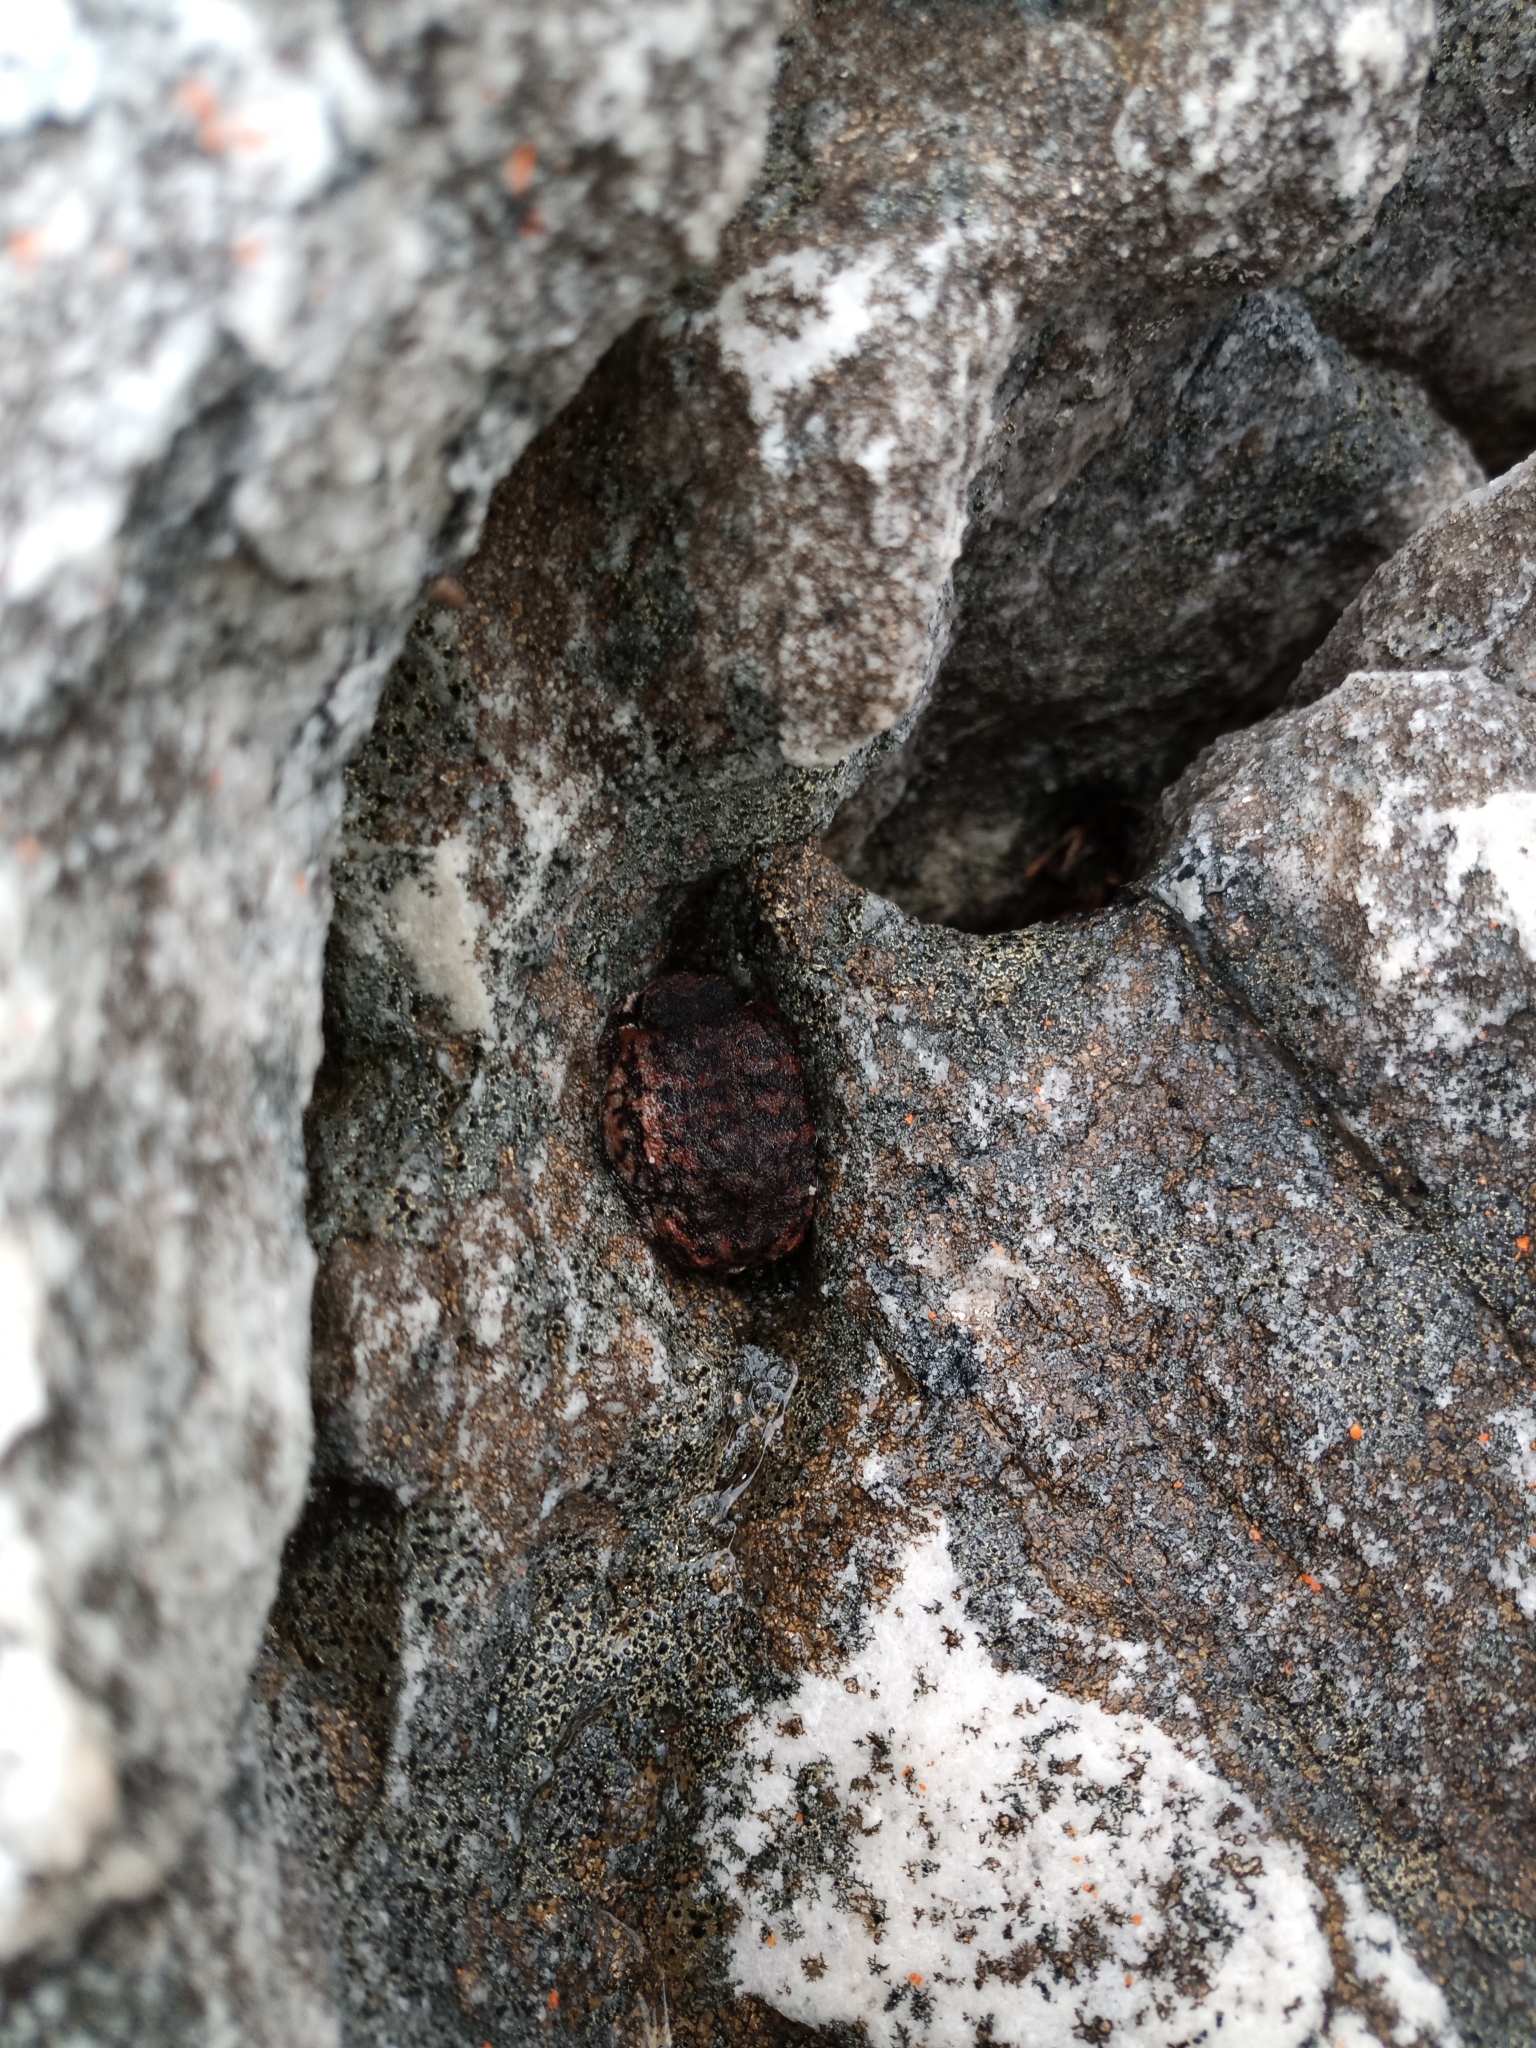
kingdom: Animalia
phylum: Chordata
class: Amphibia
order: Anura
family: Brevicipitidae
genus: Breviceps
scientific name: Breviceps montanus
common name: Mountain rain frog
